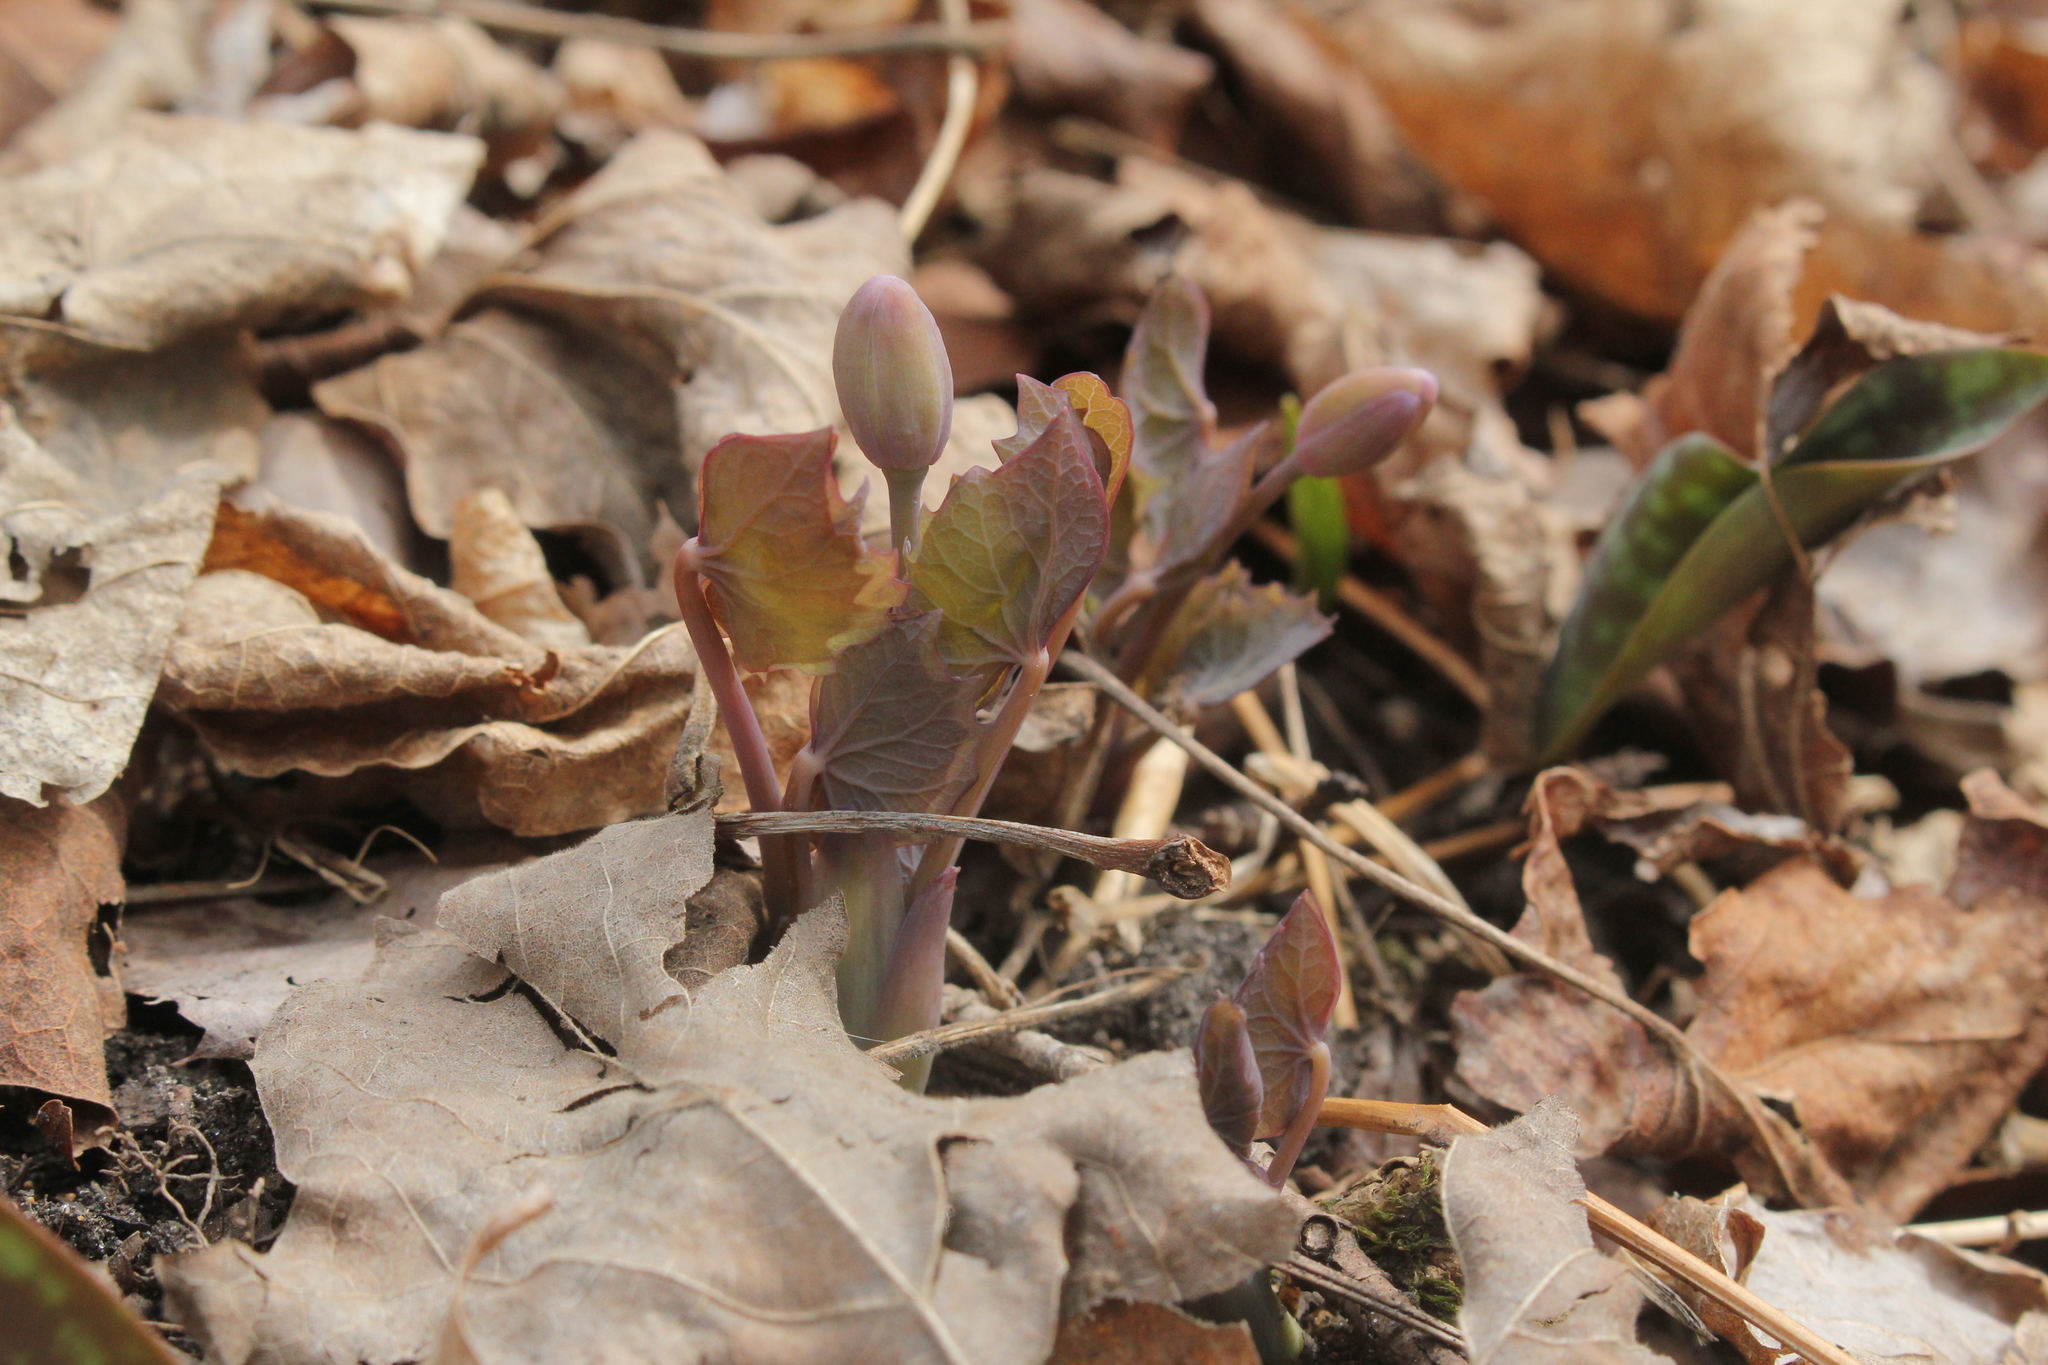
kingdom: Plantae
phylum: Tracheophyta
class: Magnoliopsida
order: Ranunculales
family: Berberidaceae
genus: Jeffersonia
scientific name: Jeffersonia diphylla
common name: Rheumatism-root
